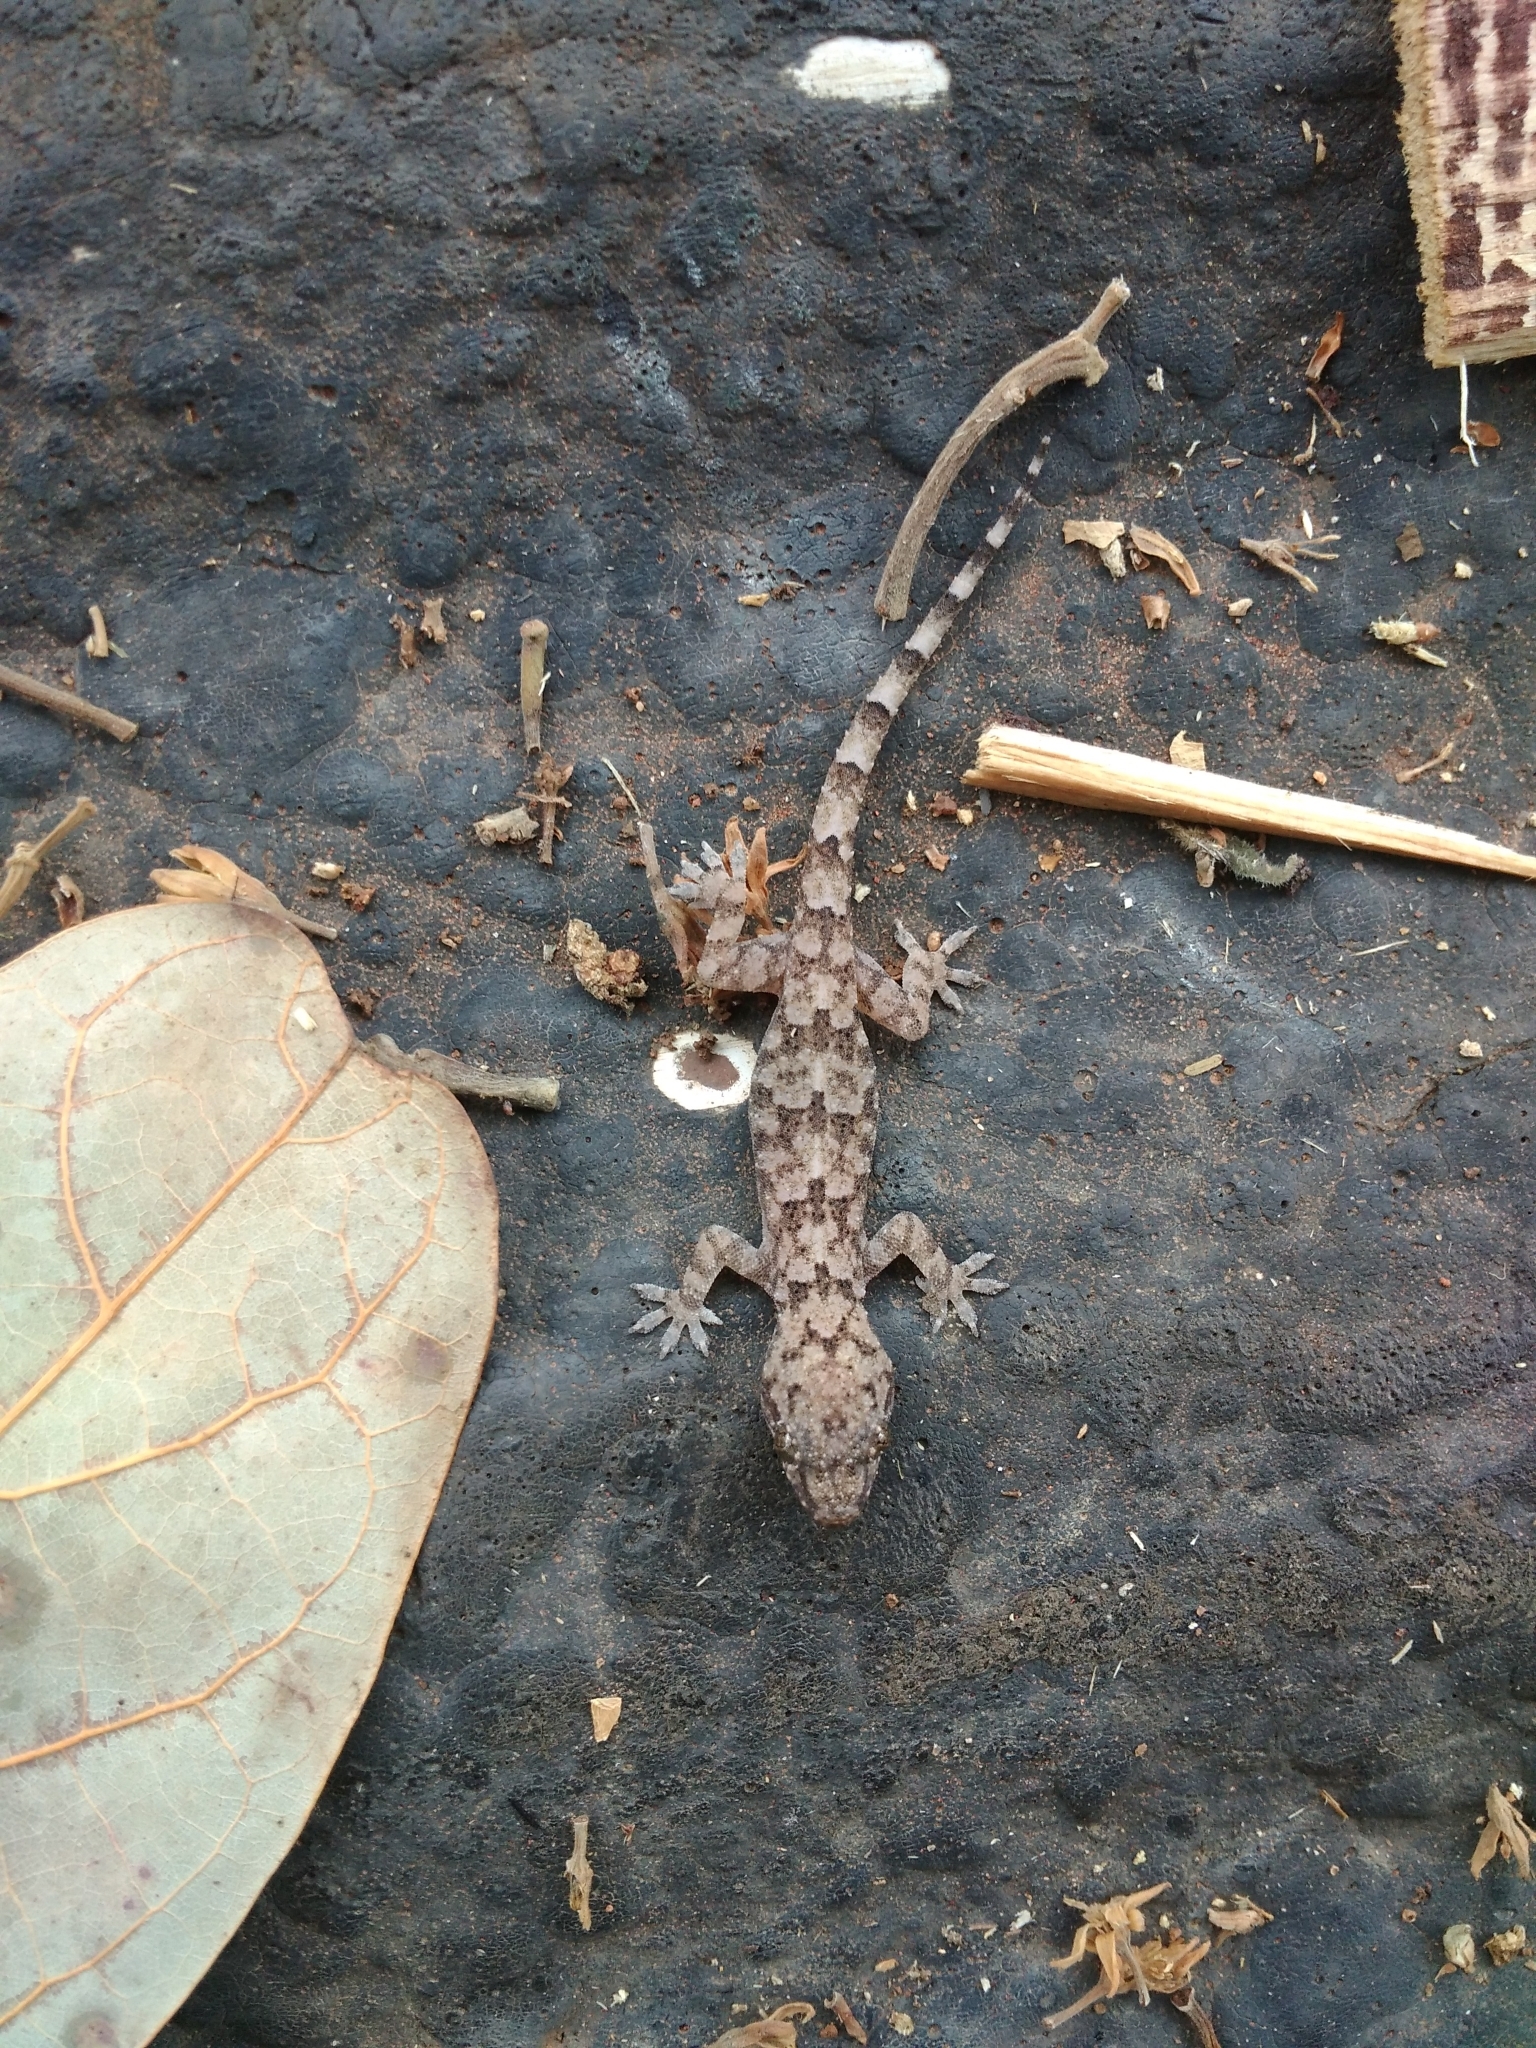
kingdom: Animalia
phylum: Chordata
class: Squamata
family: Gekkonidae
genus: Hemidactylus
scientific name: Hemidactylus mabouia
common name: House gecko
